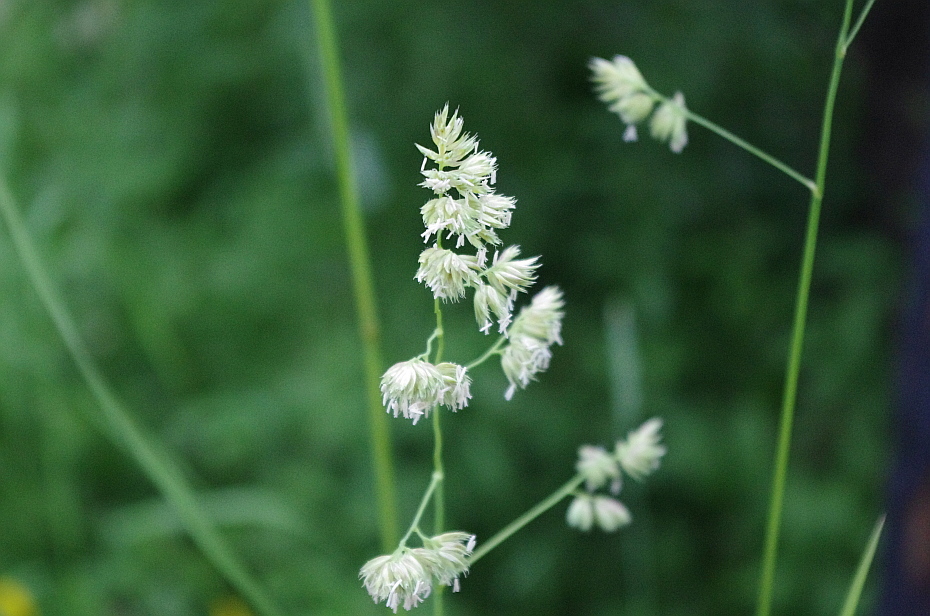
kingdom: Plantae
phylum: Tracheophyta
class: Liliopsida
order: Poales
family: Poaceae
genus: Dactylis
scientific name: Dactylis glomerata
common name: Orchardgrass
